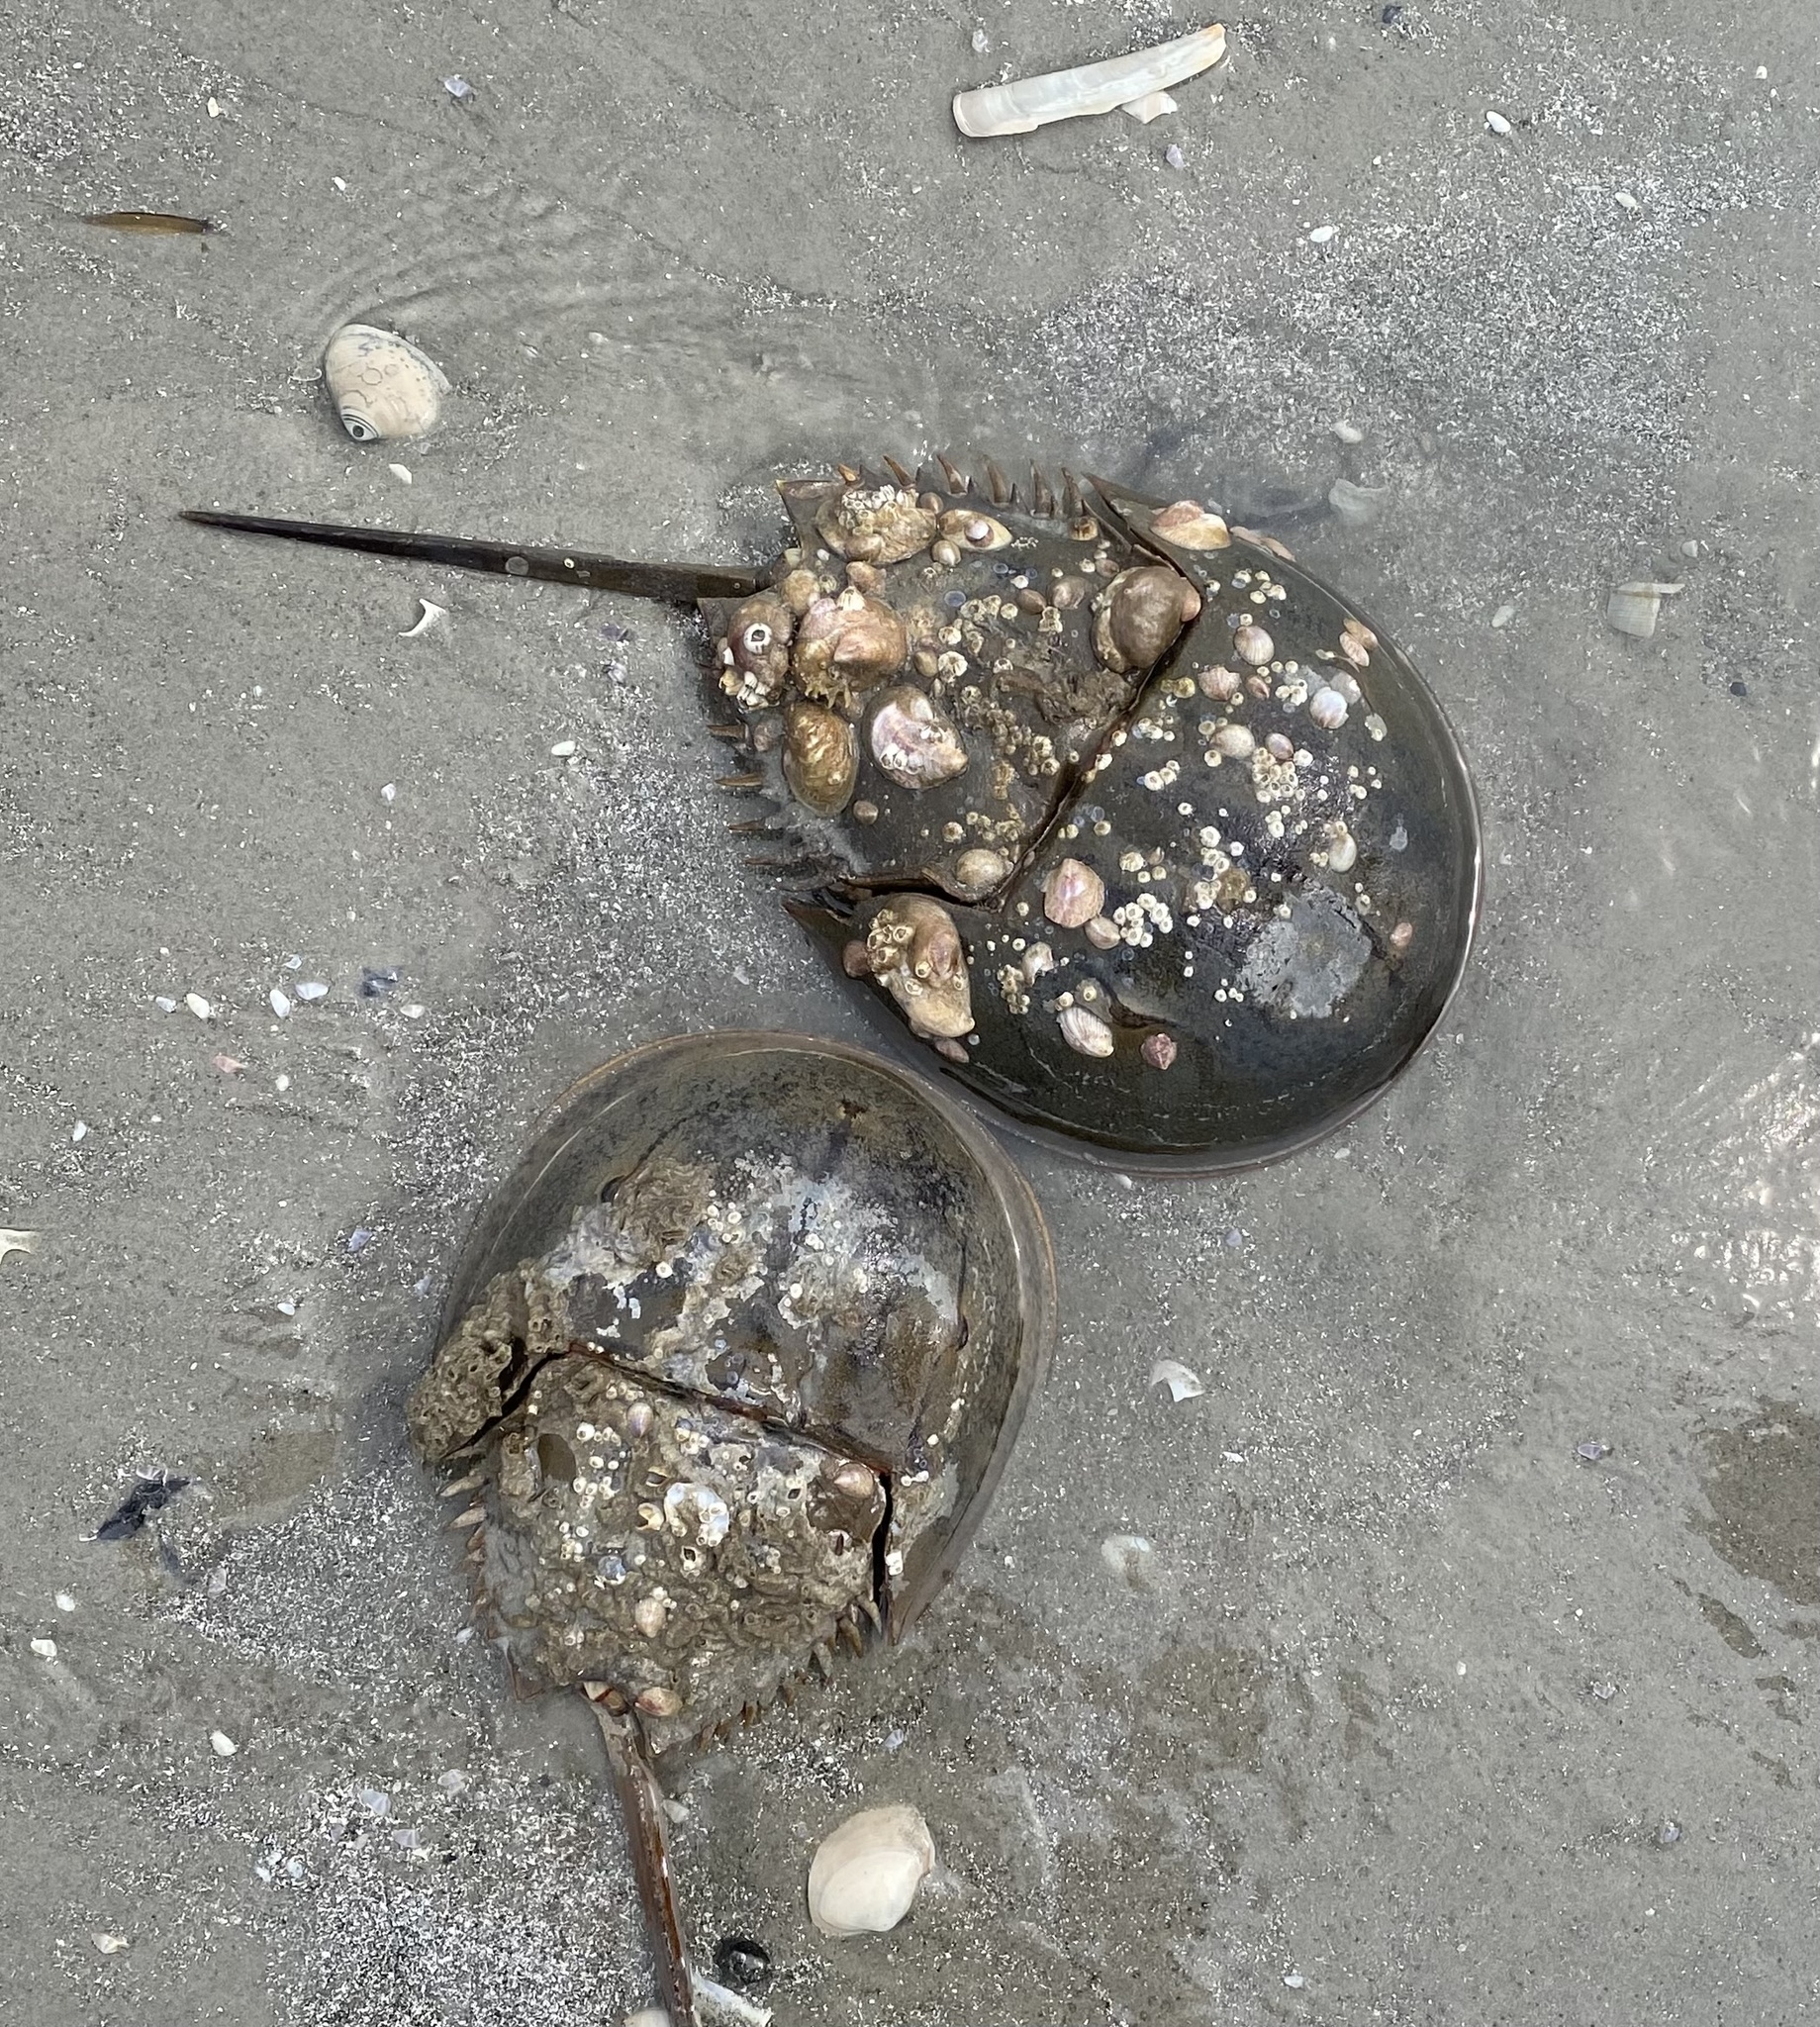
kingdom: Animalia
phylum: Arthropoda
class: Merostomata
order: Xiphosurida
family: Limulidae
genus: Limulus
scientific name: Limulus polyphemus
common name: Horseshoe crab
